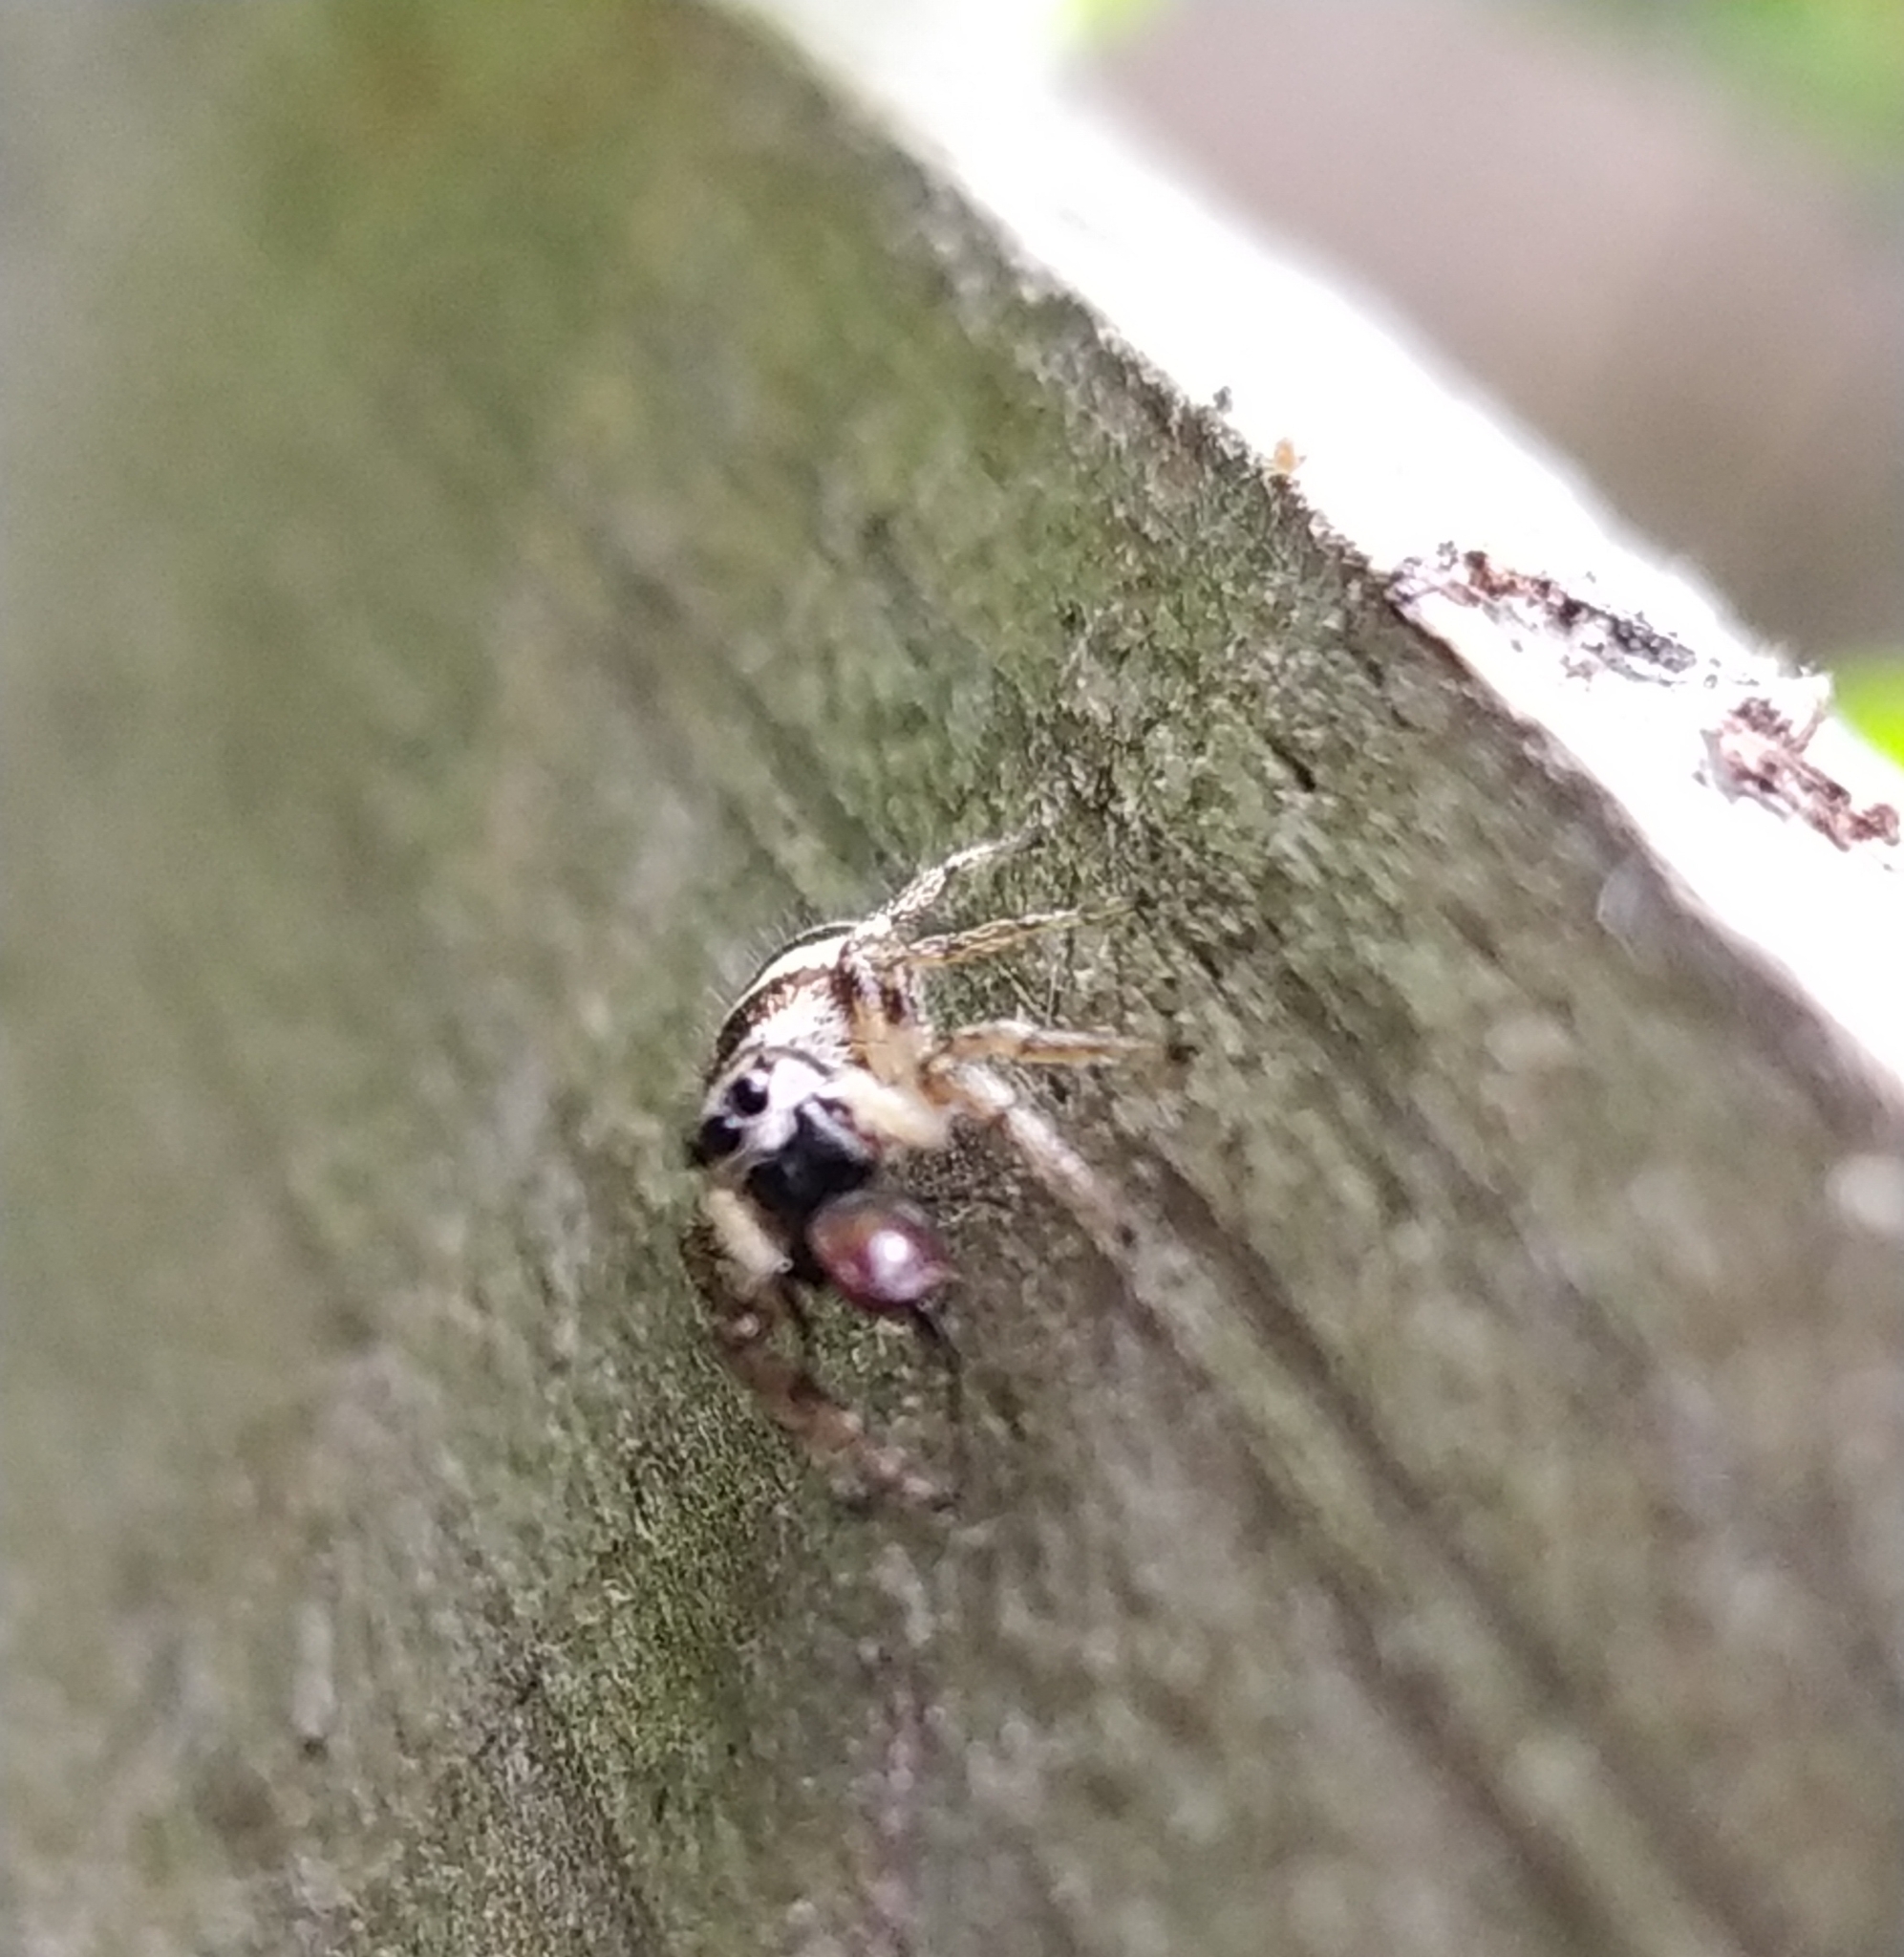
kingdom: Animalia
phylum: Arthropoda
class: Arachnida
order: Araneae
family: Salticidae
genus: Salticus
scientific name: Salticus scenicus
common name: Zebra jumper
